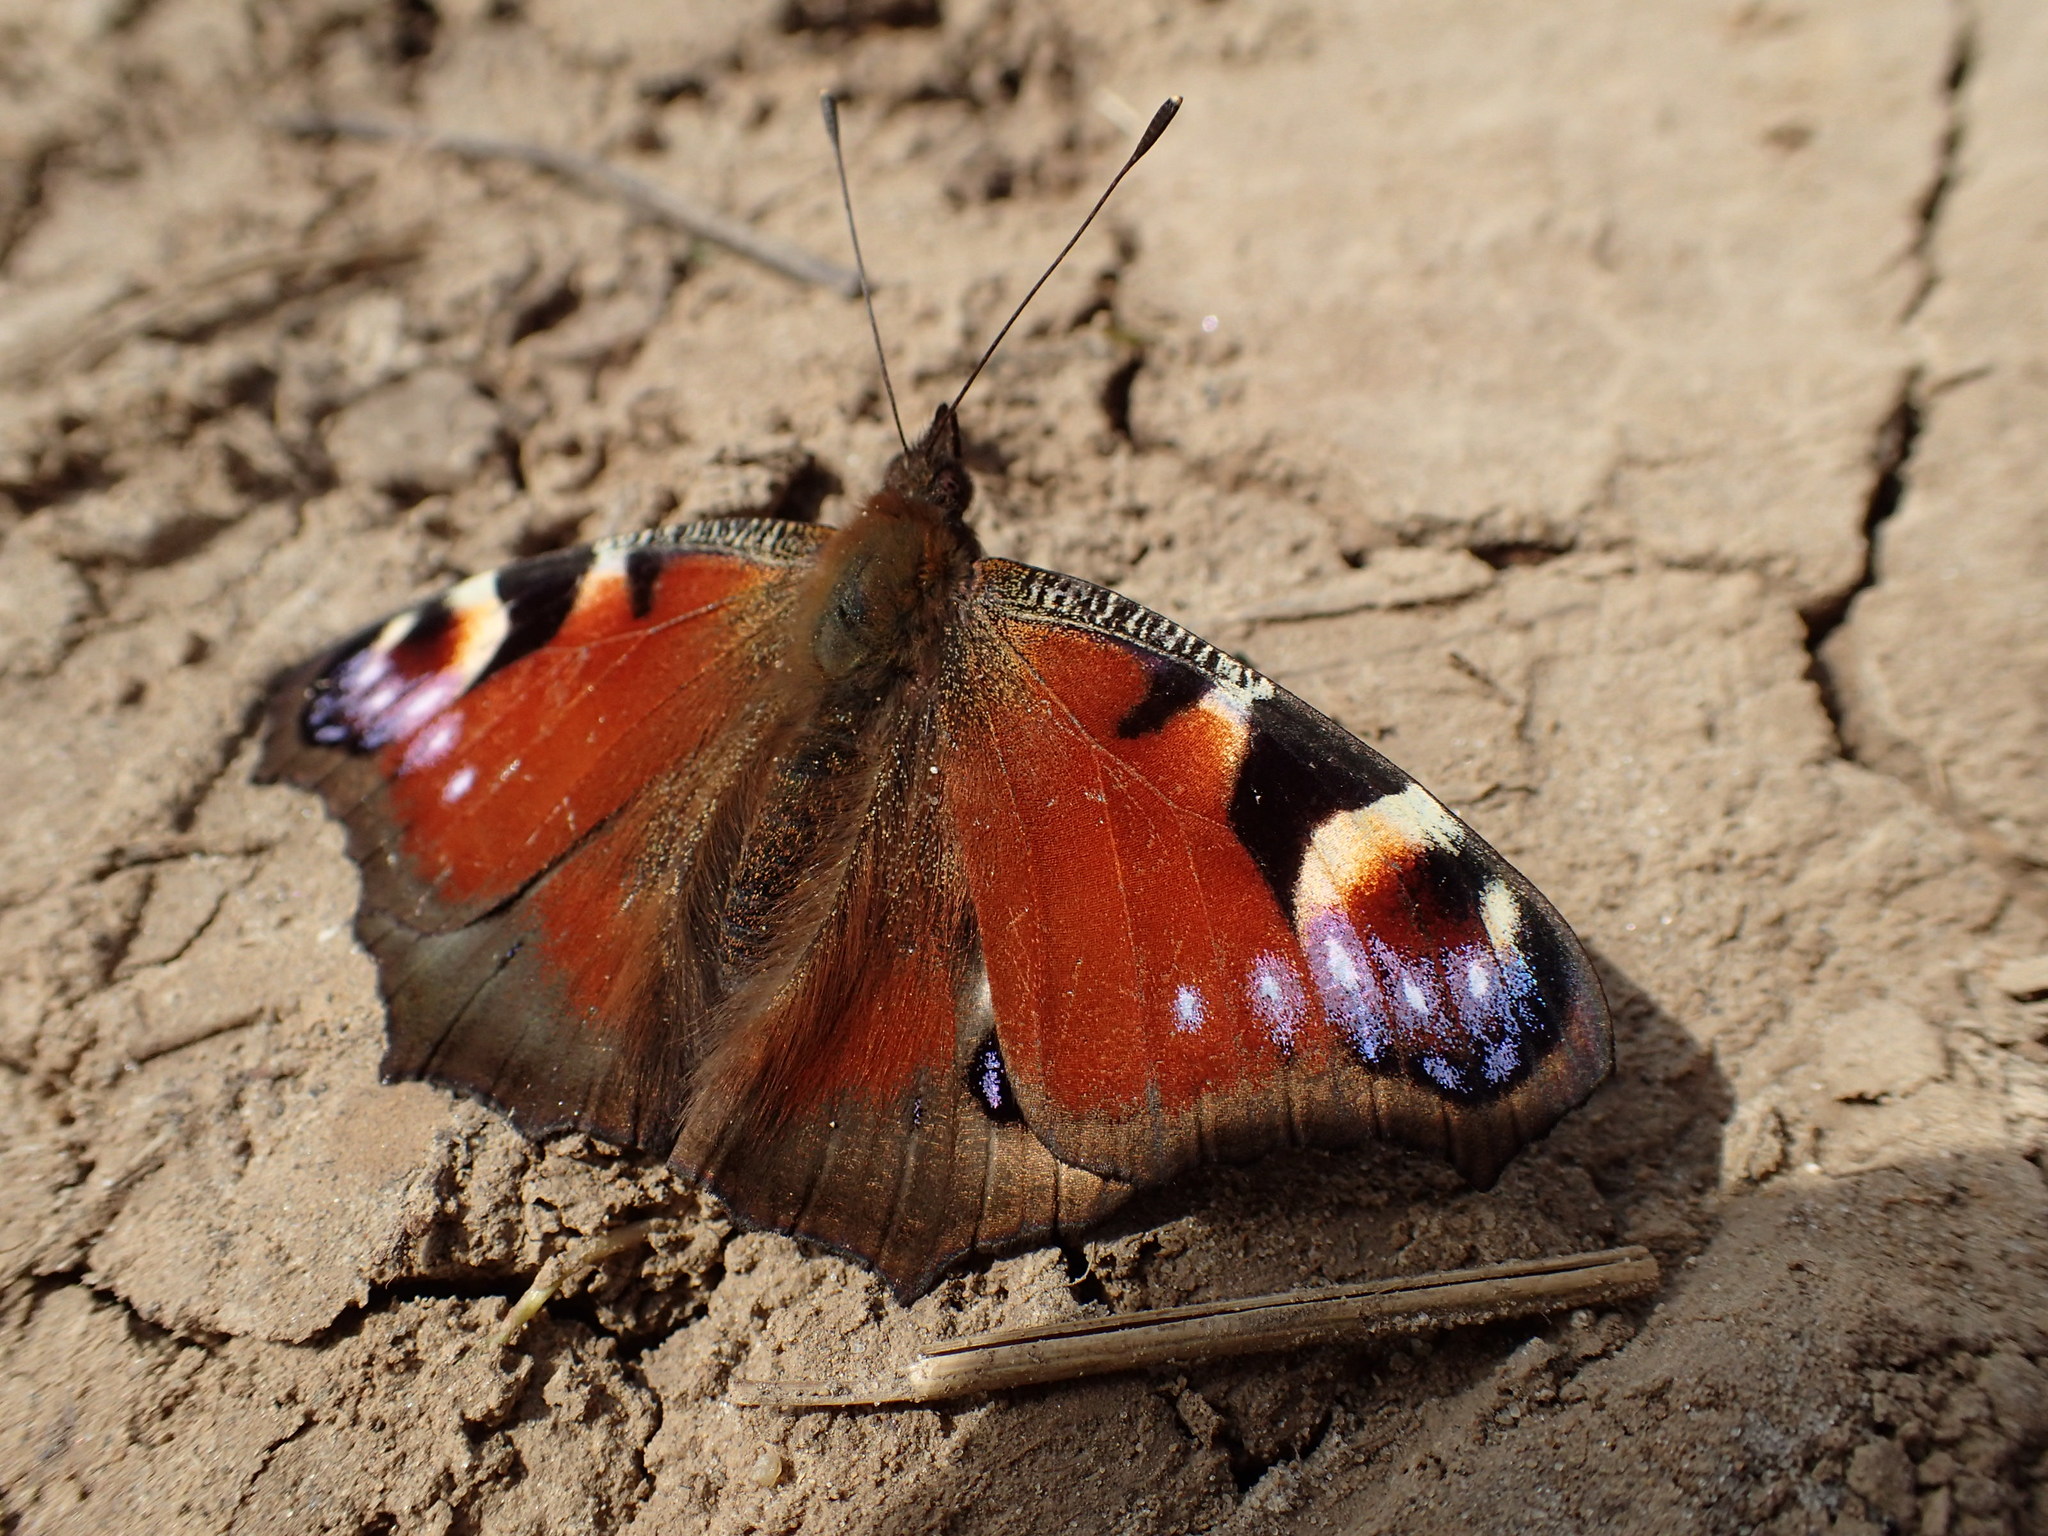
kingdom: Animalia
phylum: Arthropoda
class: Insecta
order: Lepidoptera
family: Nymphalidae
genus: Aglais
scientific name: Aglais io
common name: Peacock
